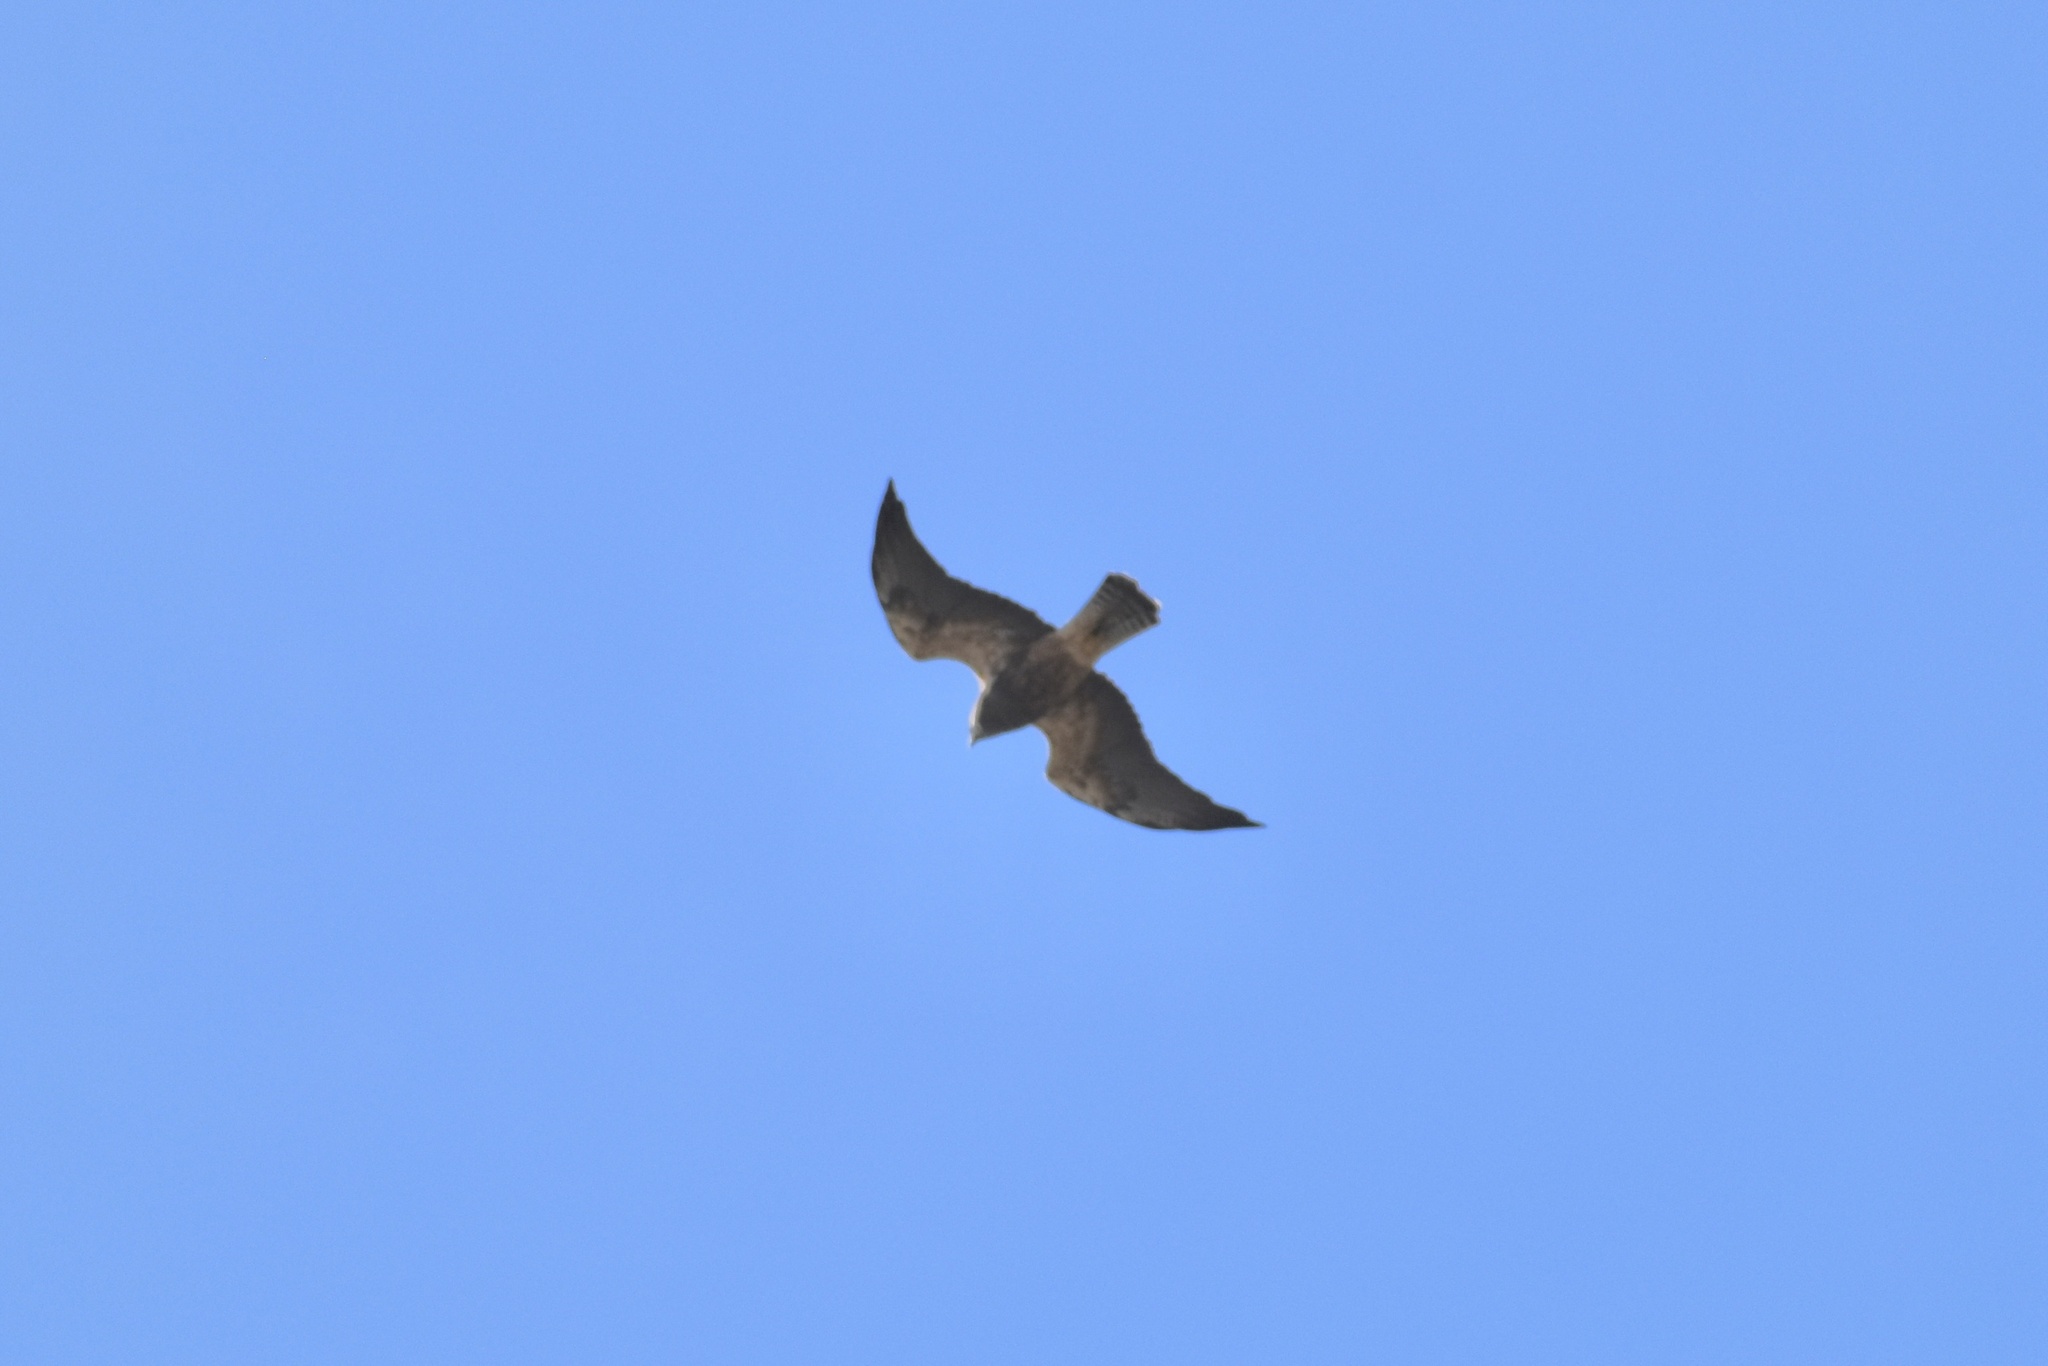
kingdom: Animalia
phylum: Chordata
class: Aves
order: Accipitriformes
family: Accipitridae
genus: Buteo
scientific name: Buteo swainsoni
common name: Swainson's hawk
